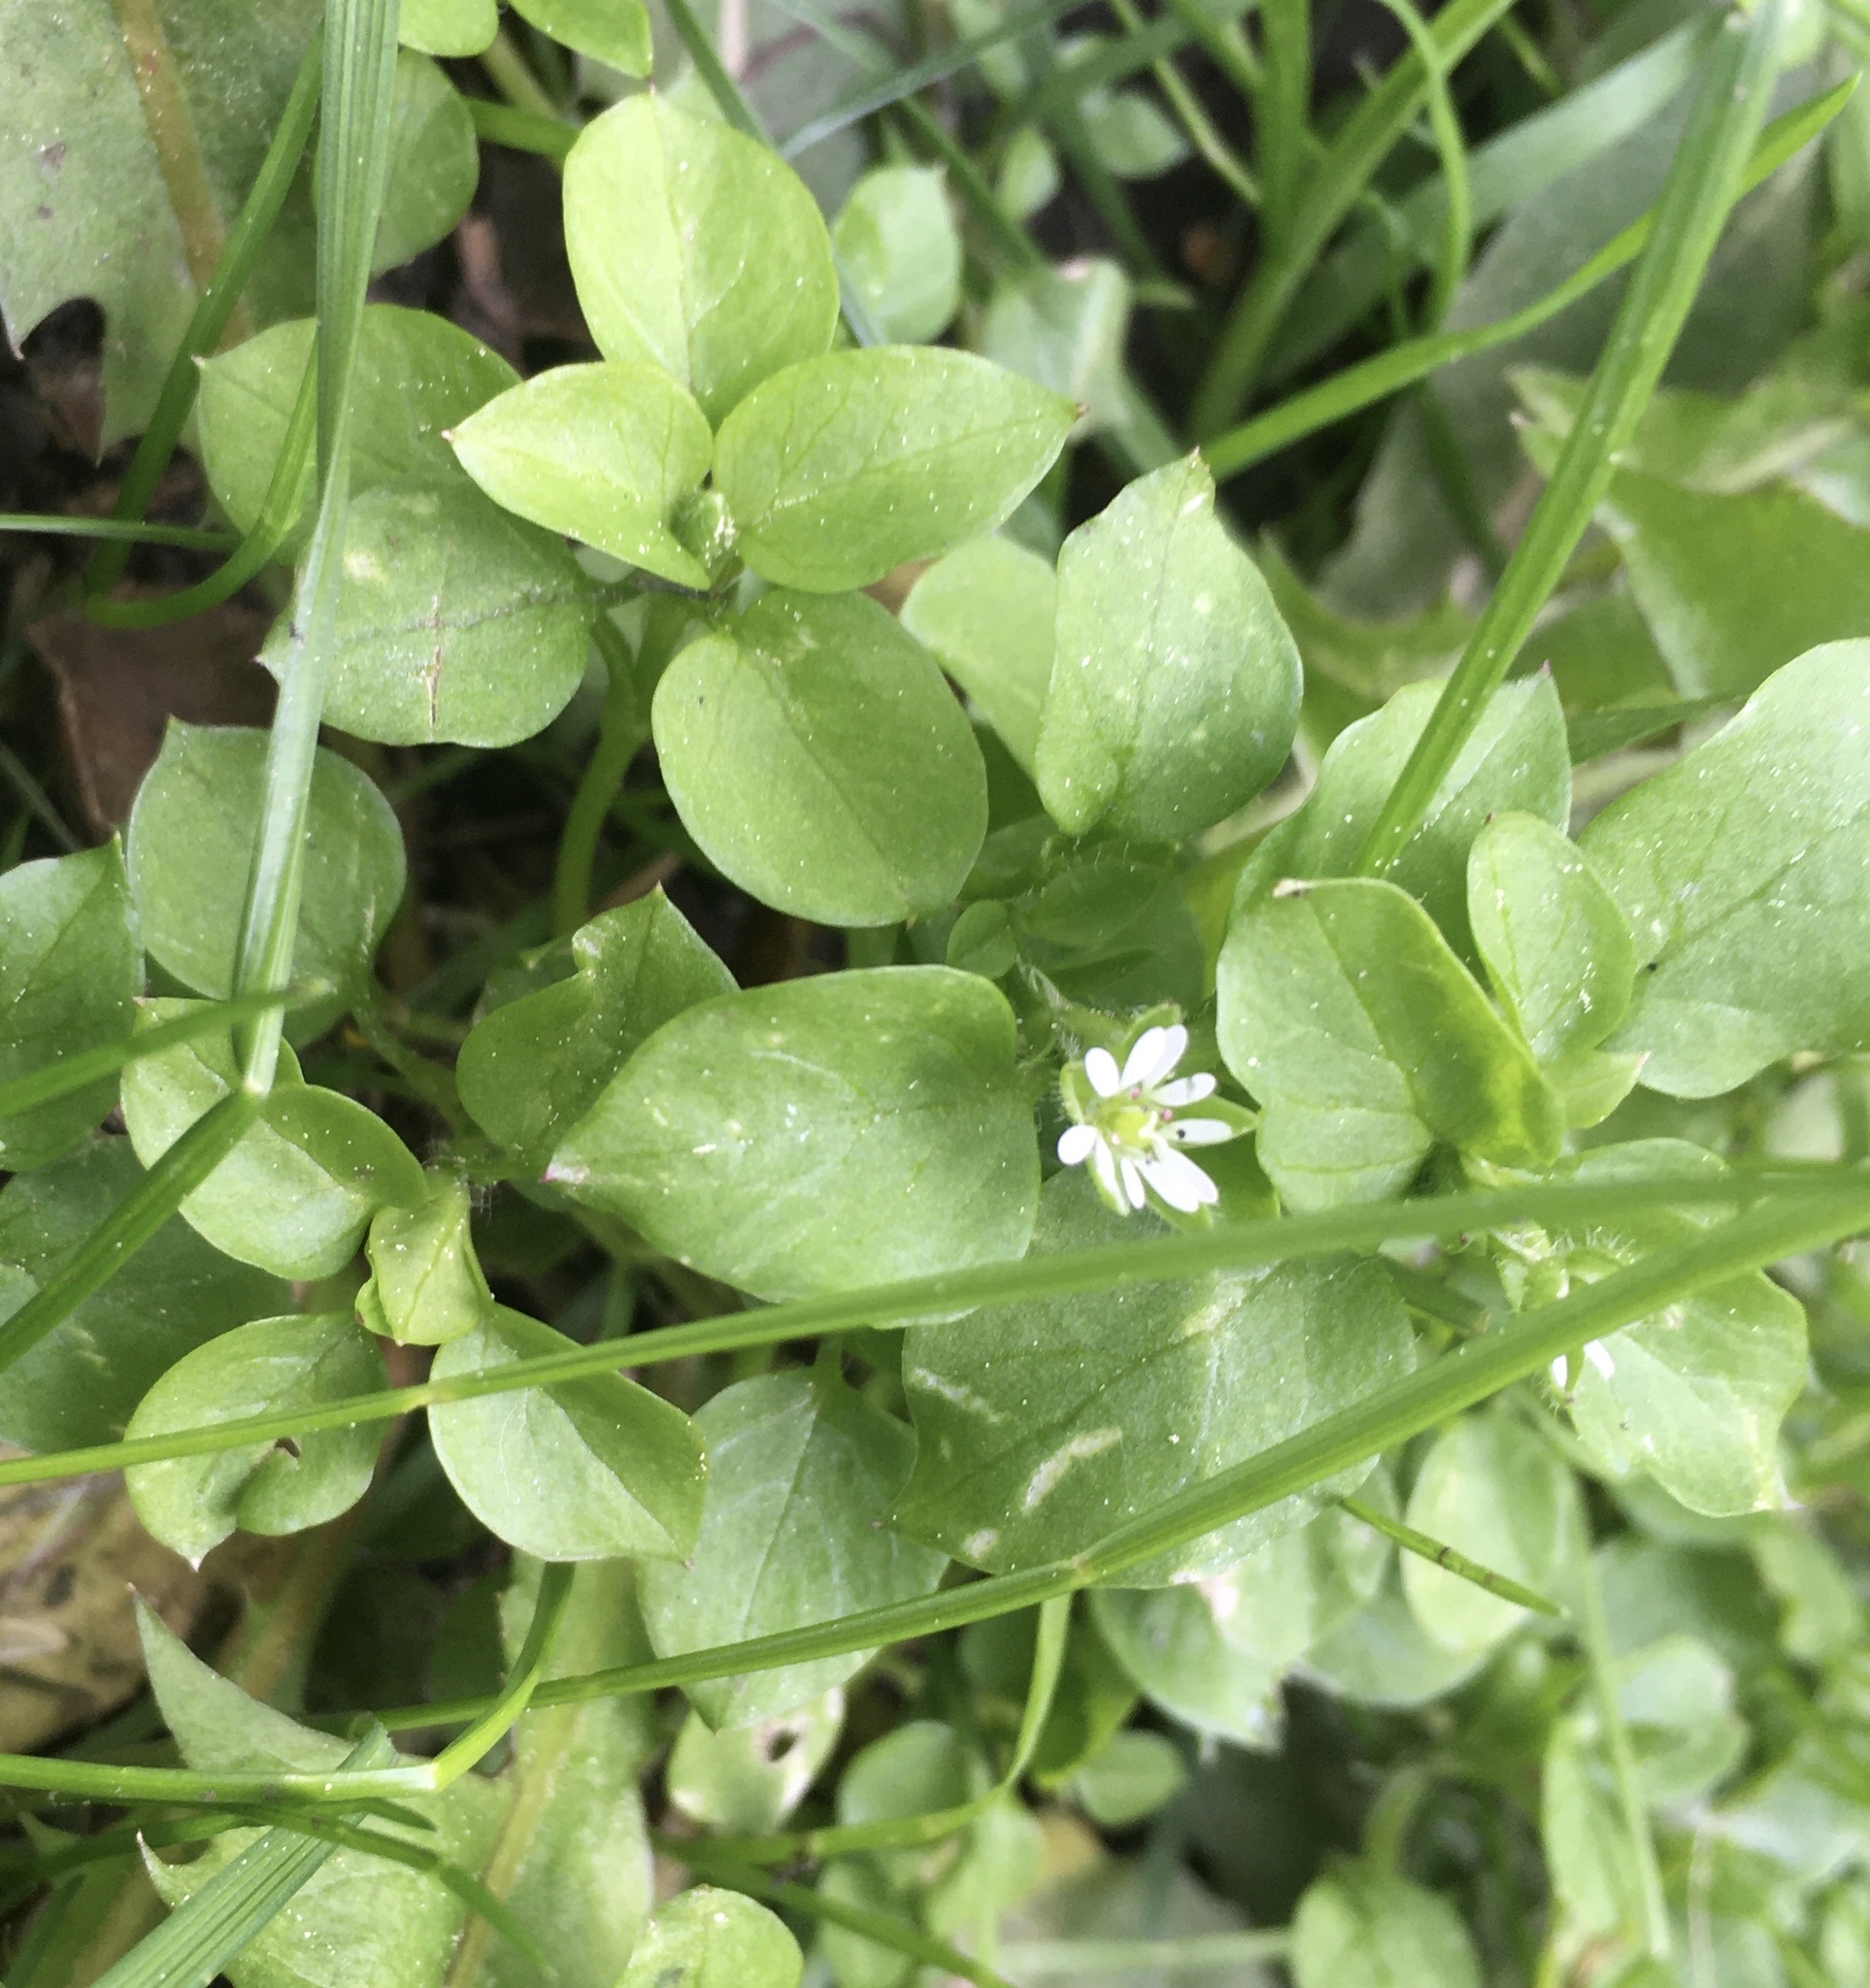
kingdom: Plantae
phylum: Tracheophyta
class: Magnoliopsida
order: Caryophyllales
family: Caryophyllaceae
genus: Stellaria
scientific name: Stellaria media
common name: Common chickweed
